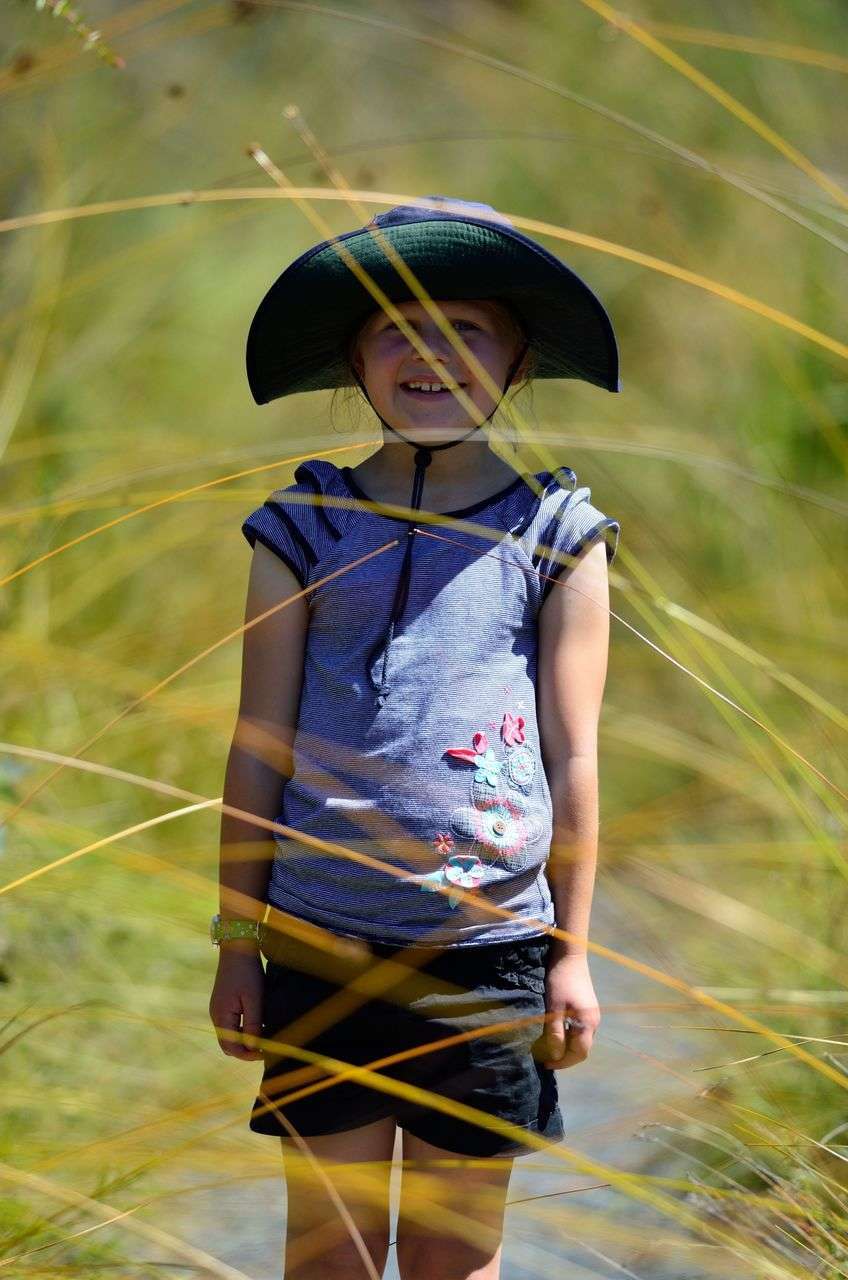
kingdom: Plantae
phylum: Tracheophyta
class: Liliopsida
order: Poales
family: Cyperaceae
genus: Gymnoschoenus
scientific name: Gymnoschoenus sphaerocephalus
